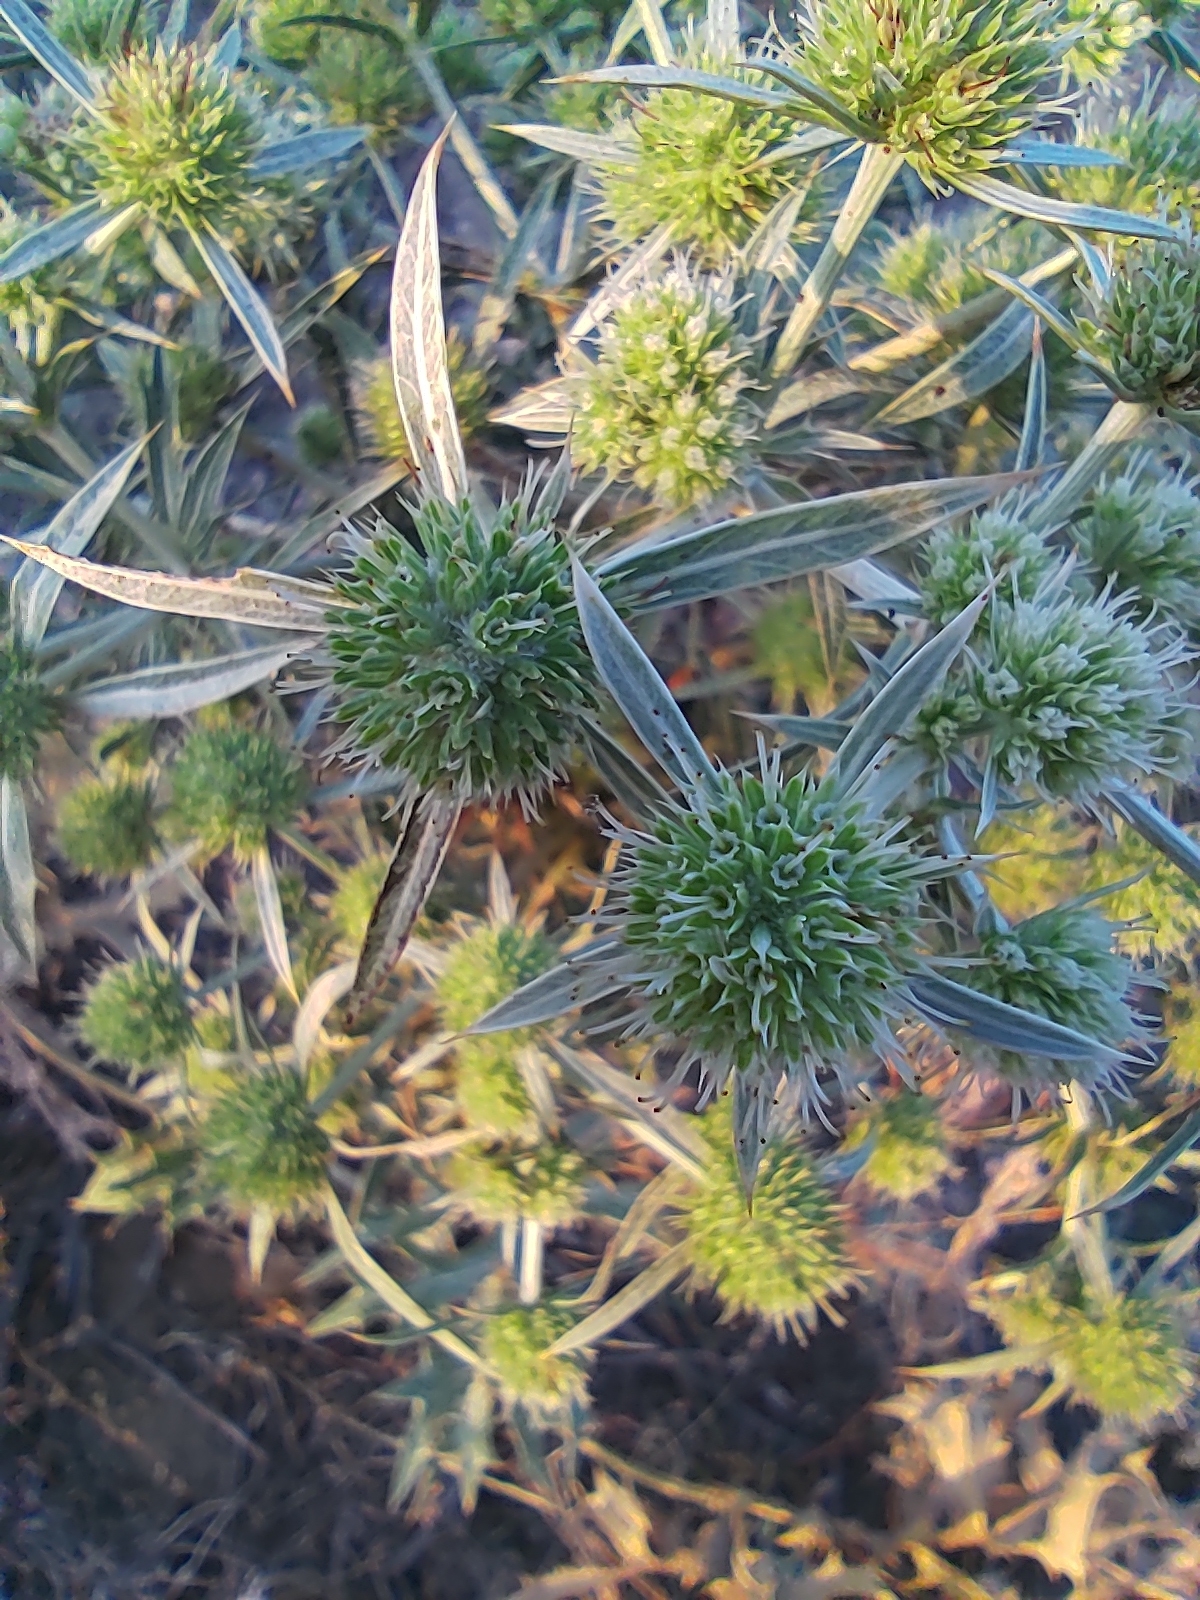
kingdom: Plantae
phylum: Tracheophyta
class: Magnoliopsida
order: Apiales
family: Apiaceae
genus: Eryngium
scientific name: Eryngium campestre
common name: Field eryngo
